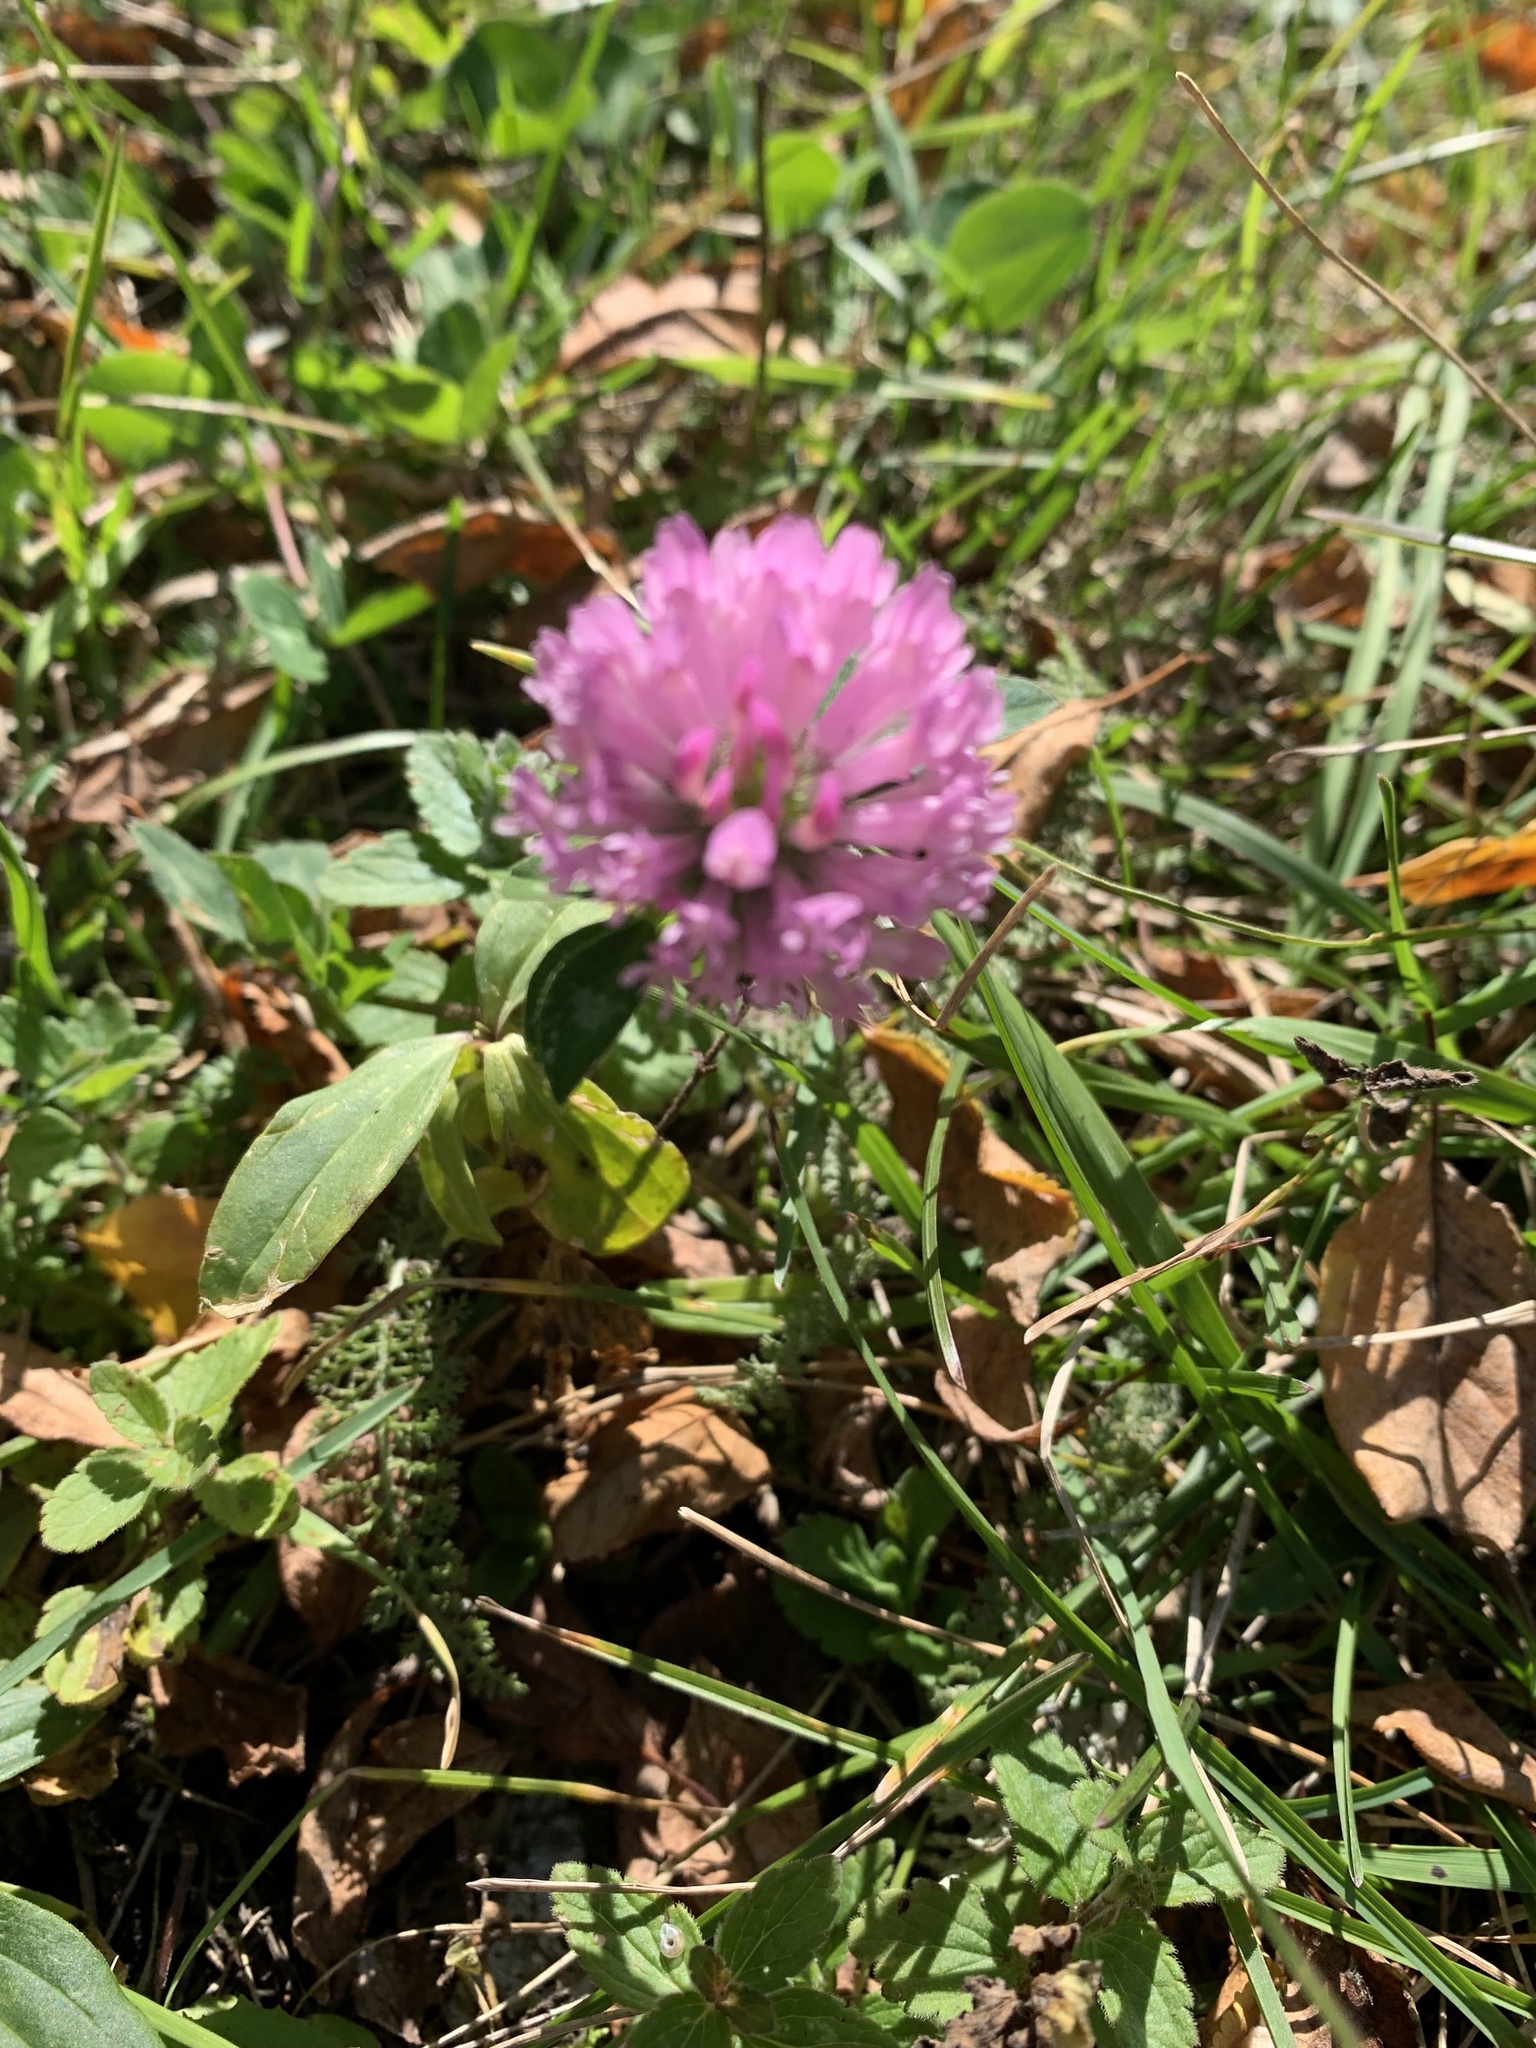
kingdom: Plantae
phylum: Tracheophyta
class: Magnoliopsida
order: Fabales
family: Fabaceae
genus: Trifolium
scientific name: Trifolium pratense
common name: Red clover
